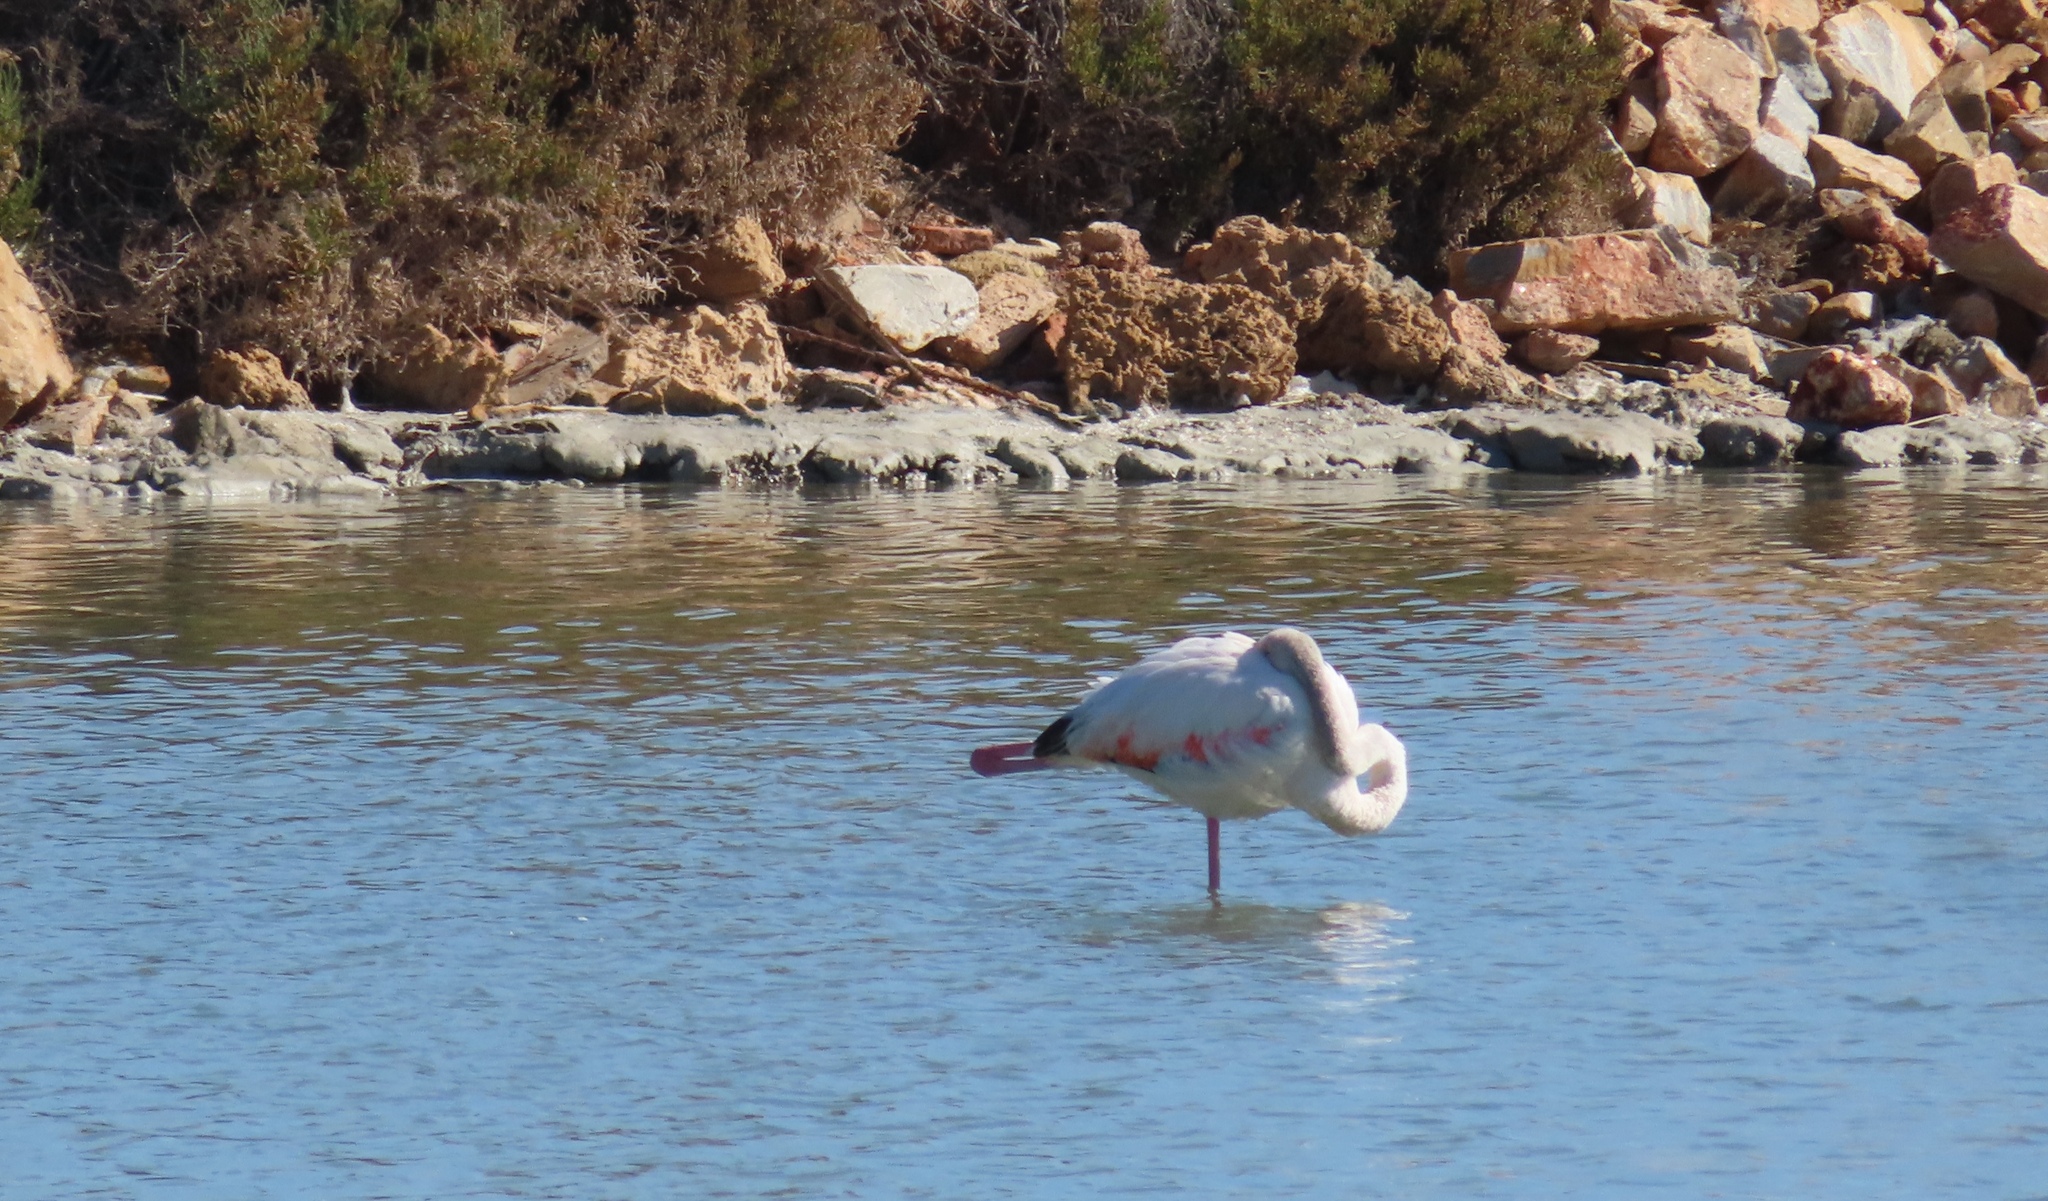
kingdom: Animalia
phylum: Chordata
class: Aves
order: Phoenicopteriformes
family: Phoenicopteridae
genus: Phoenicopterus
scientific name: Phoenicopterus roseus
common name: Greater flamingo
